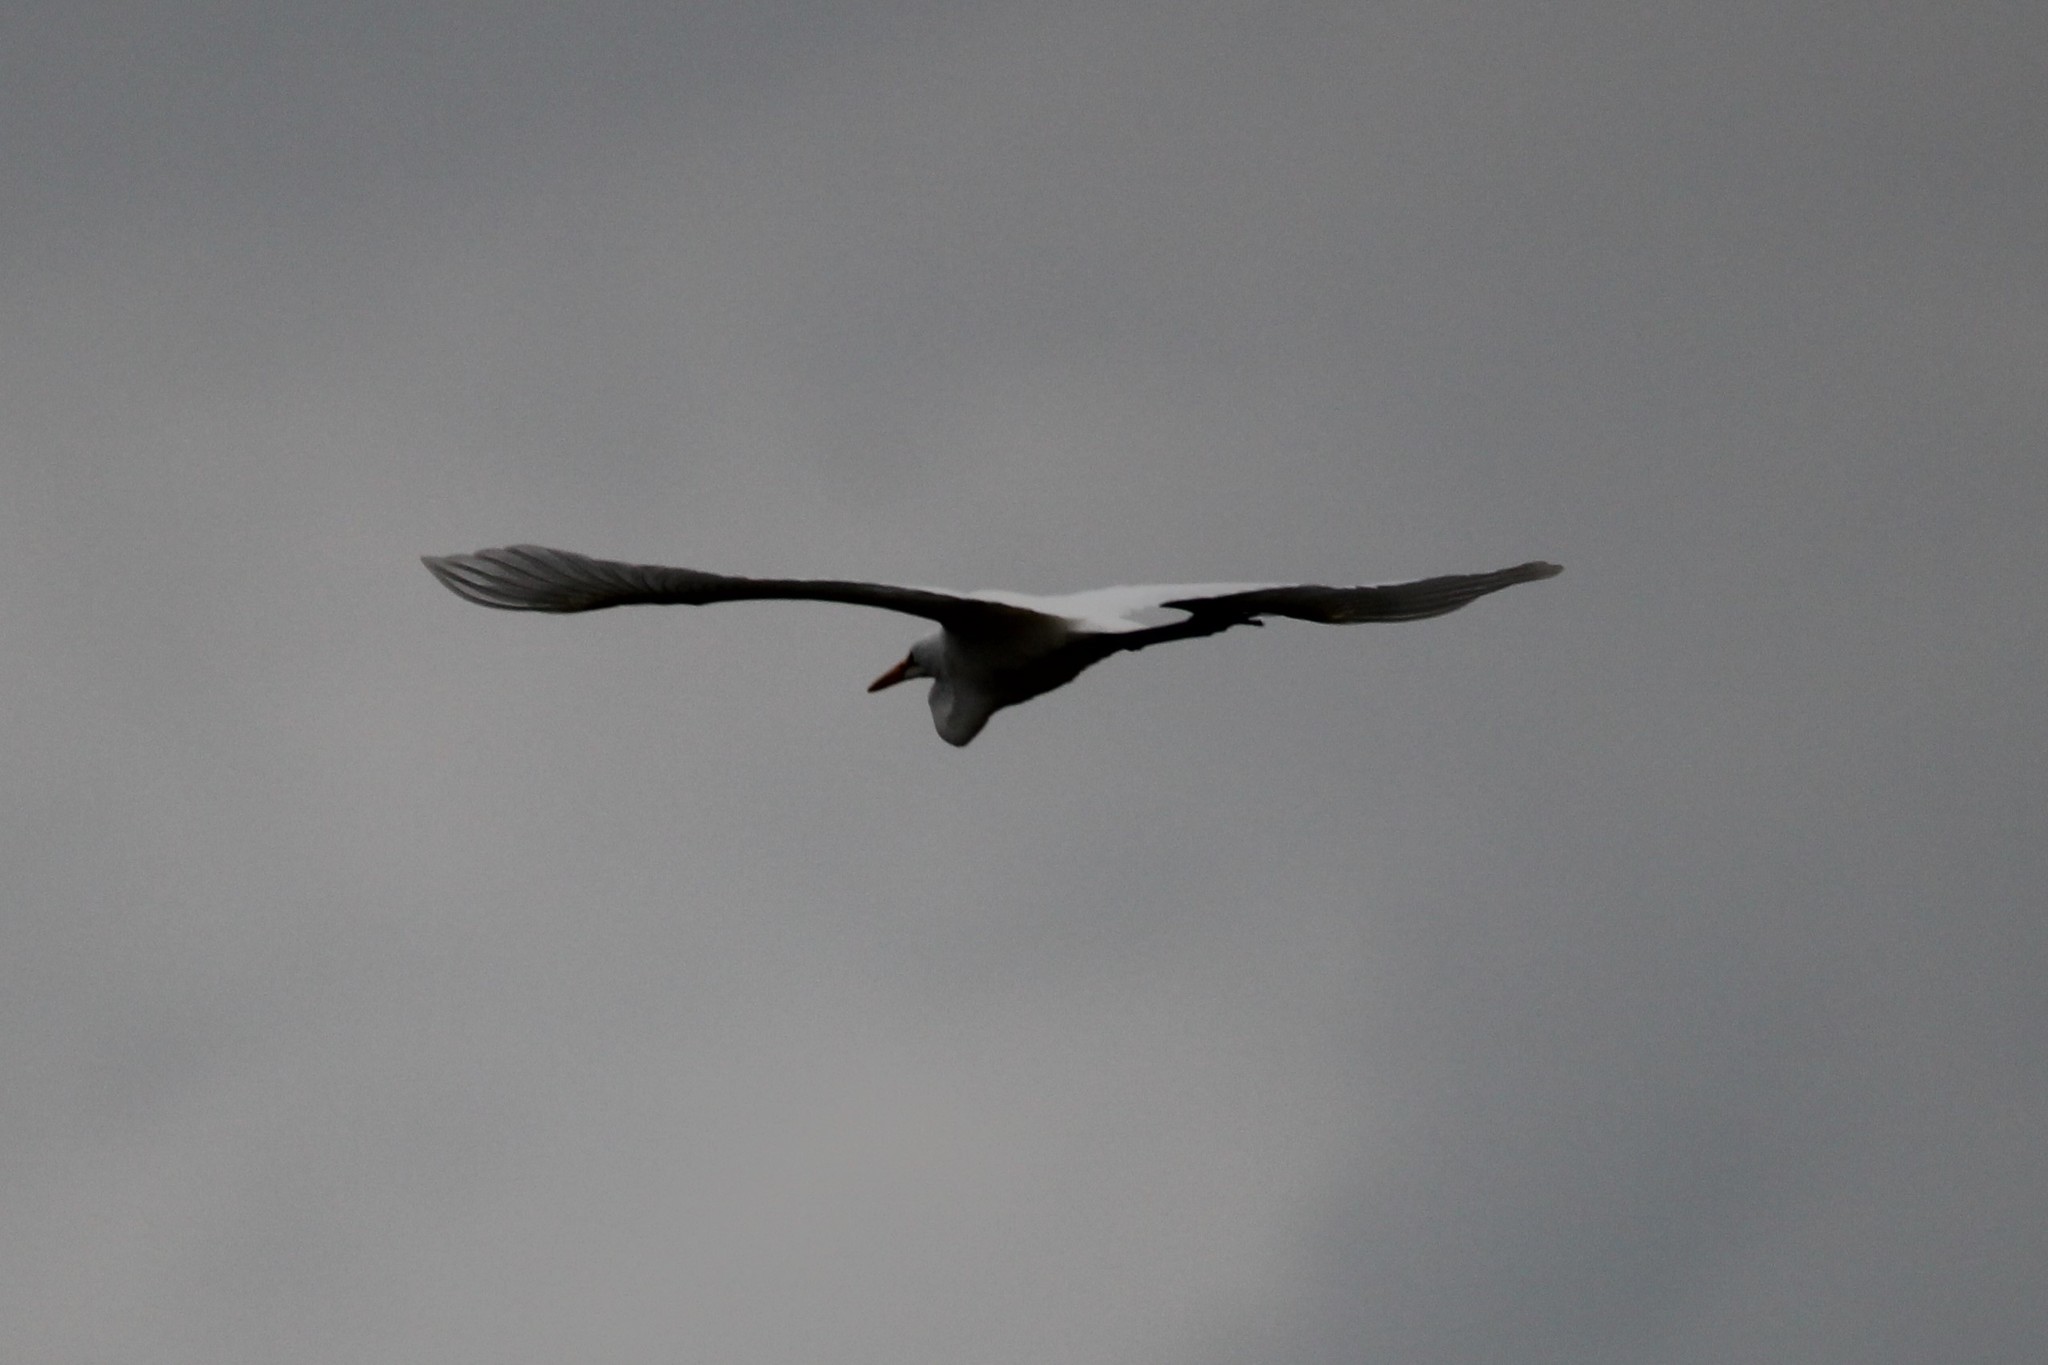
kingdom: Animalia
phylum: Chordata
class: Aves
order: Pelecaniformes
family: Ardeidae
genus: Ardea
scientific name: Ardea alba
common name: Great egret
